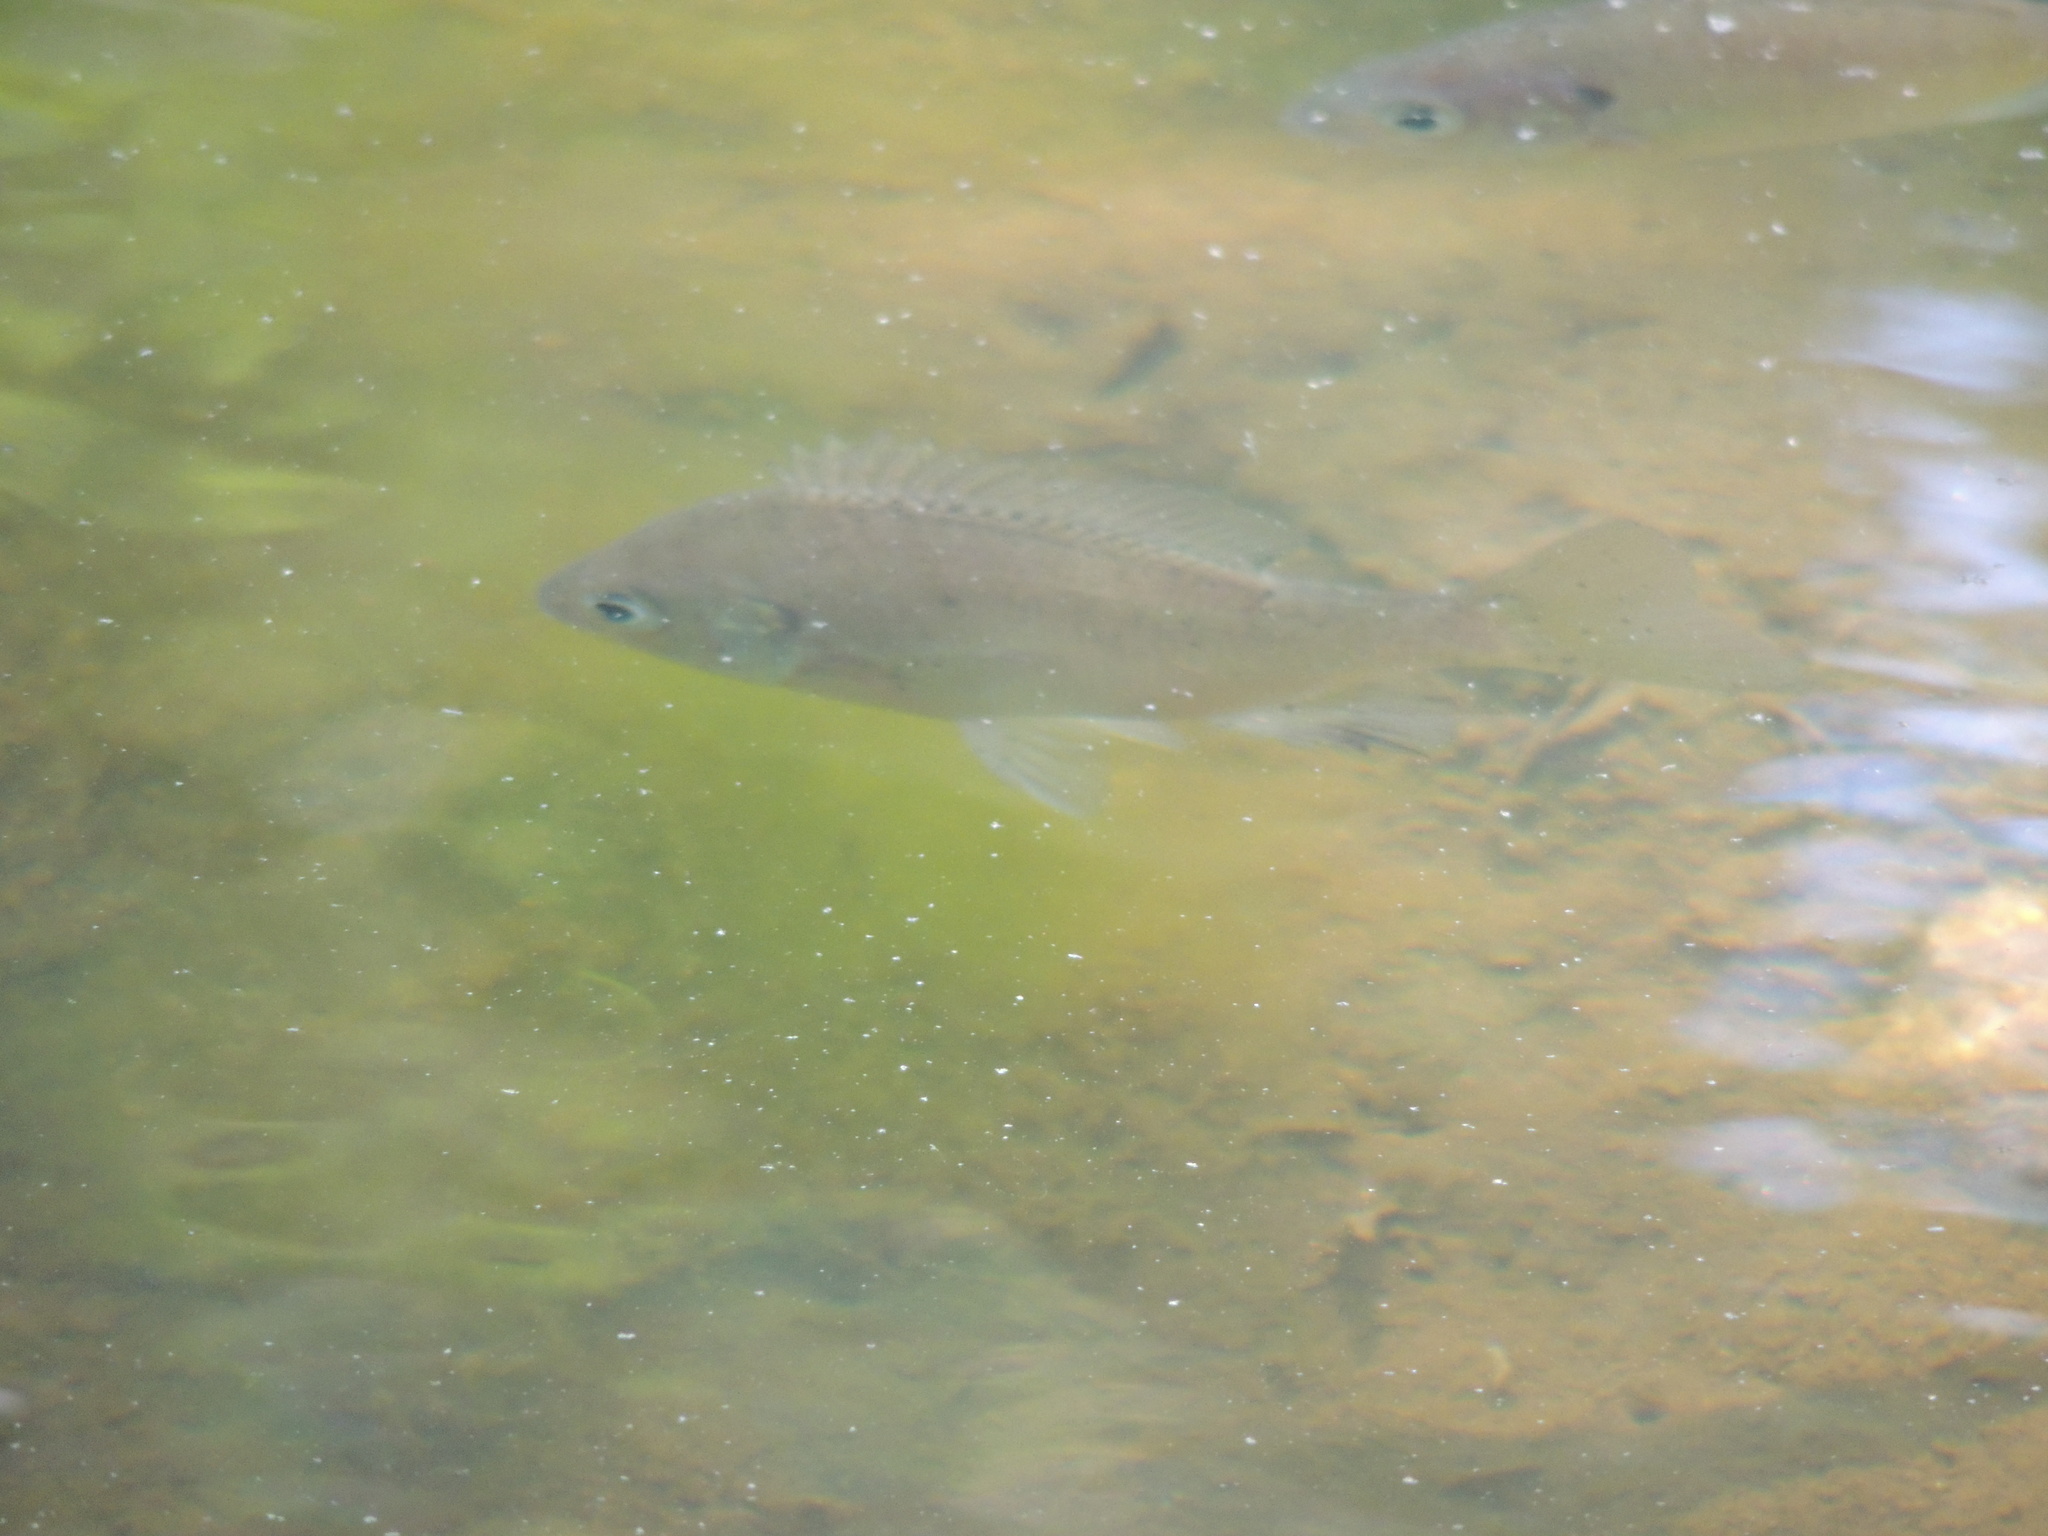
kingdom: Animalia
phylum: Chordata
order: Perciformes
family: Centrarchidae
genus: Lepomis
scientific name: Lepomis macrochirus
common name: Bluegill
